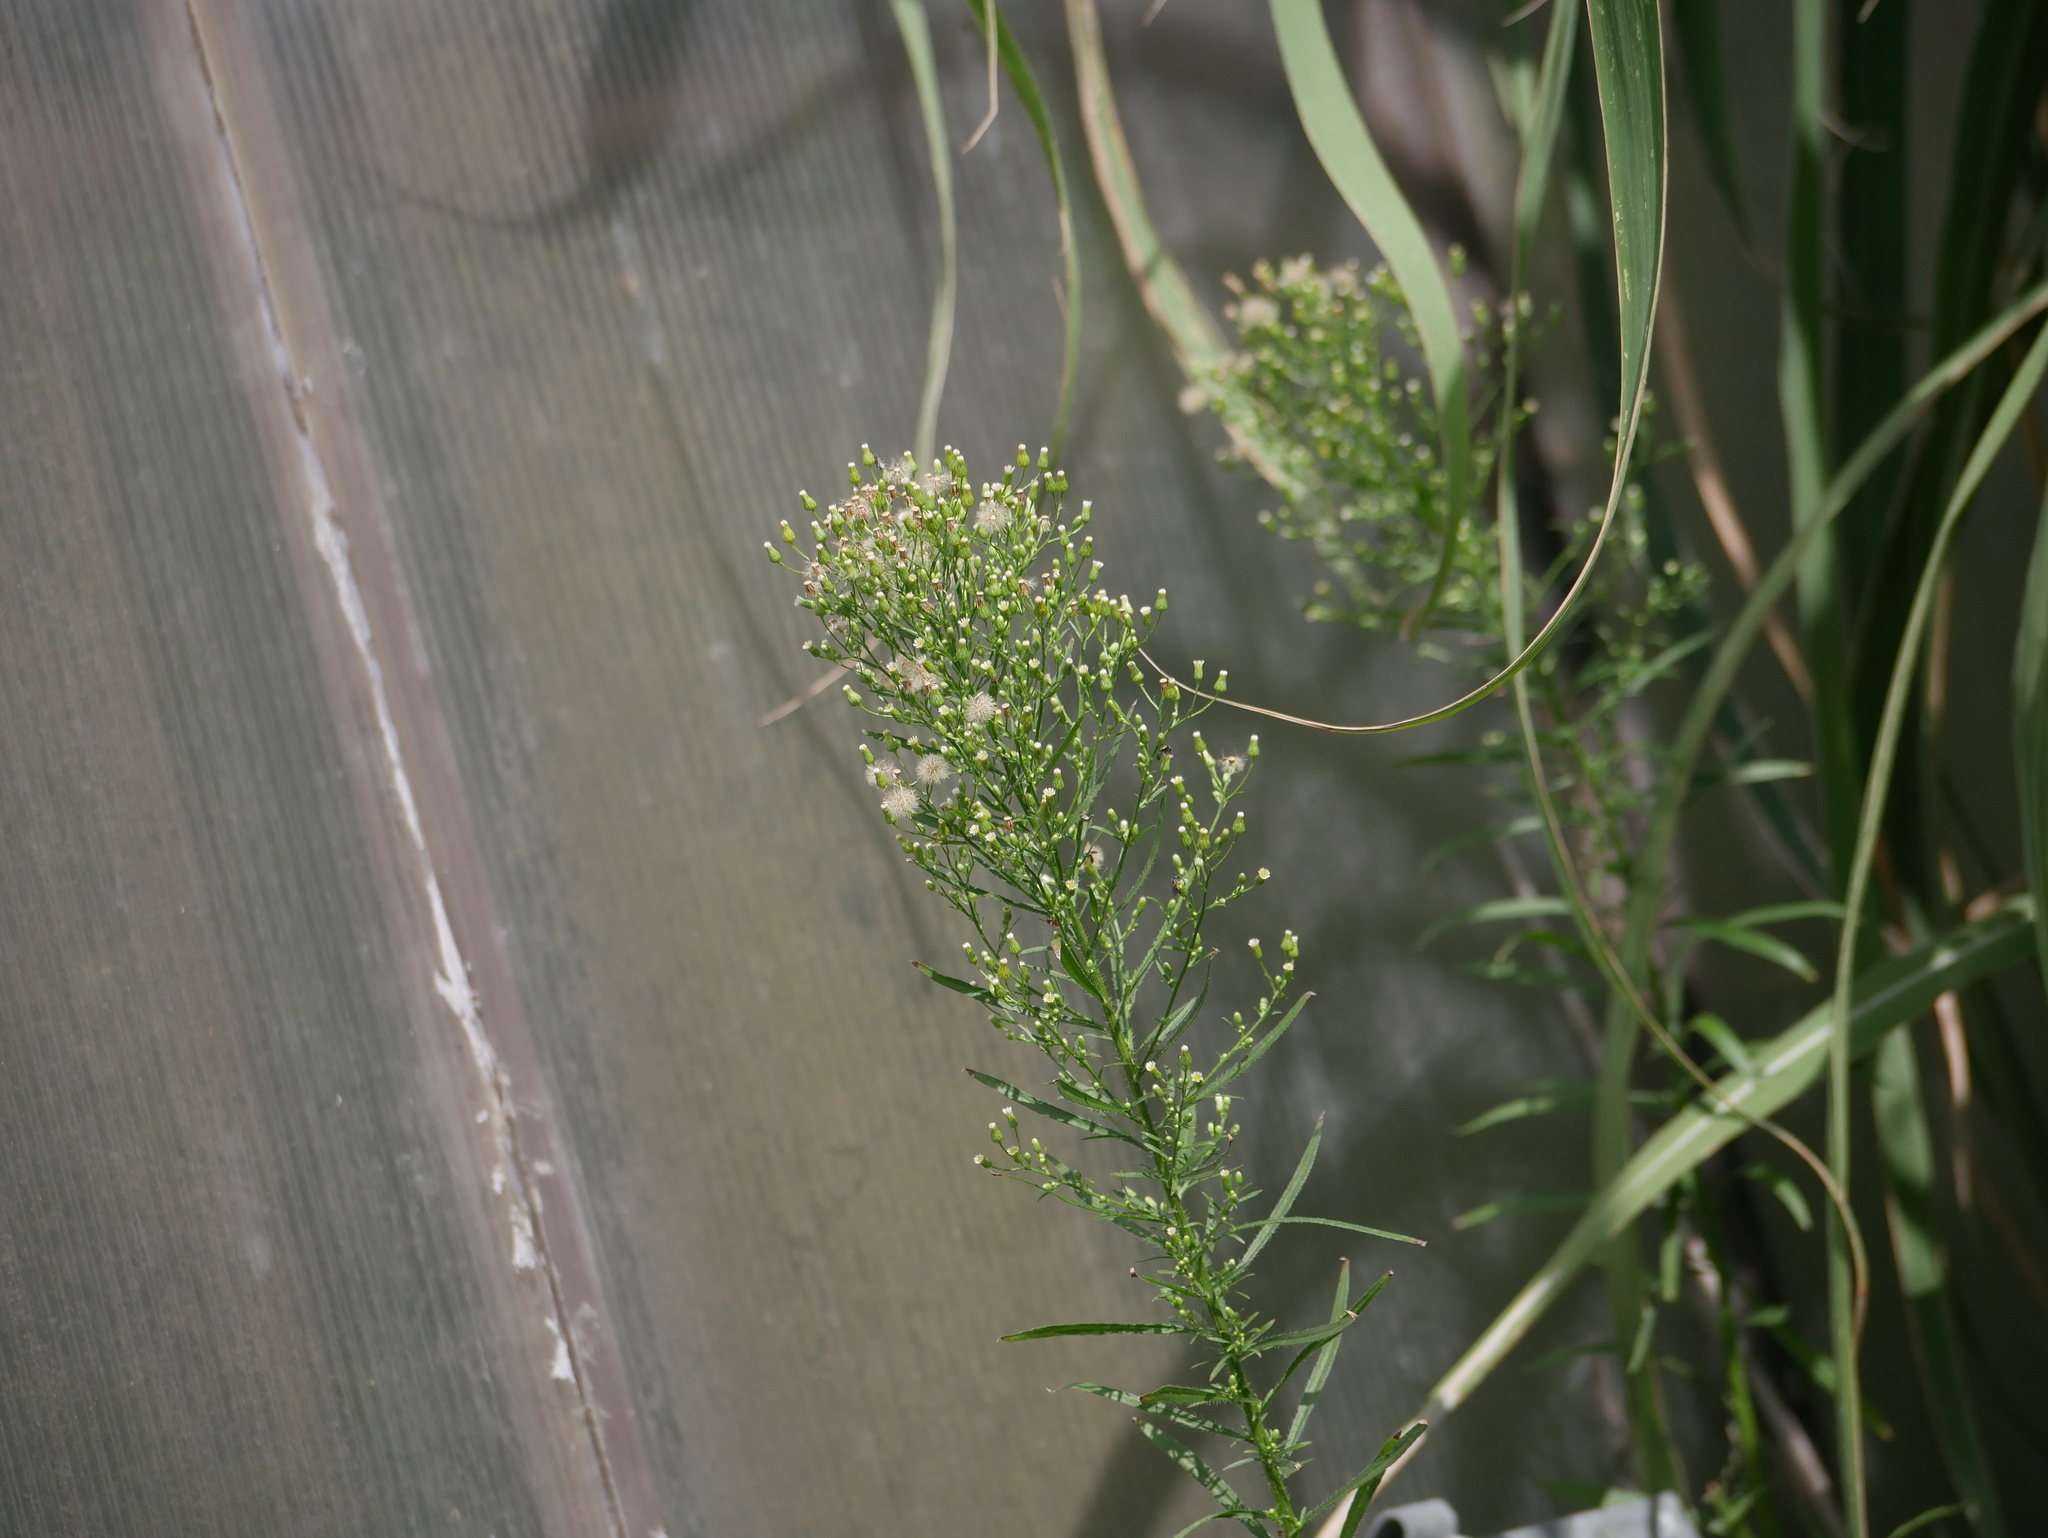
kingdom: Plantae
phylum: Tracheophyta
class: Magnoliopsida
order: Asterales
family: Asteraceae
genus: Erigeron
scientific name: Erigeron canadensis
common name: Canadian fleabane
